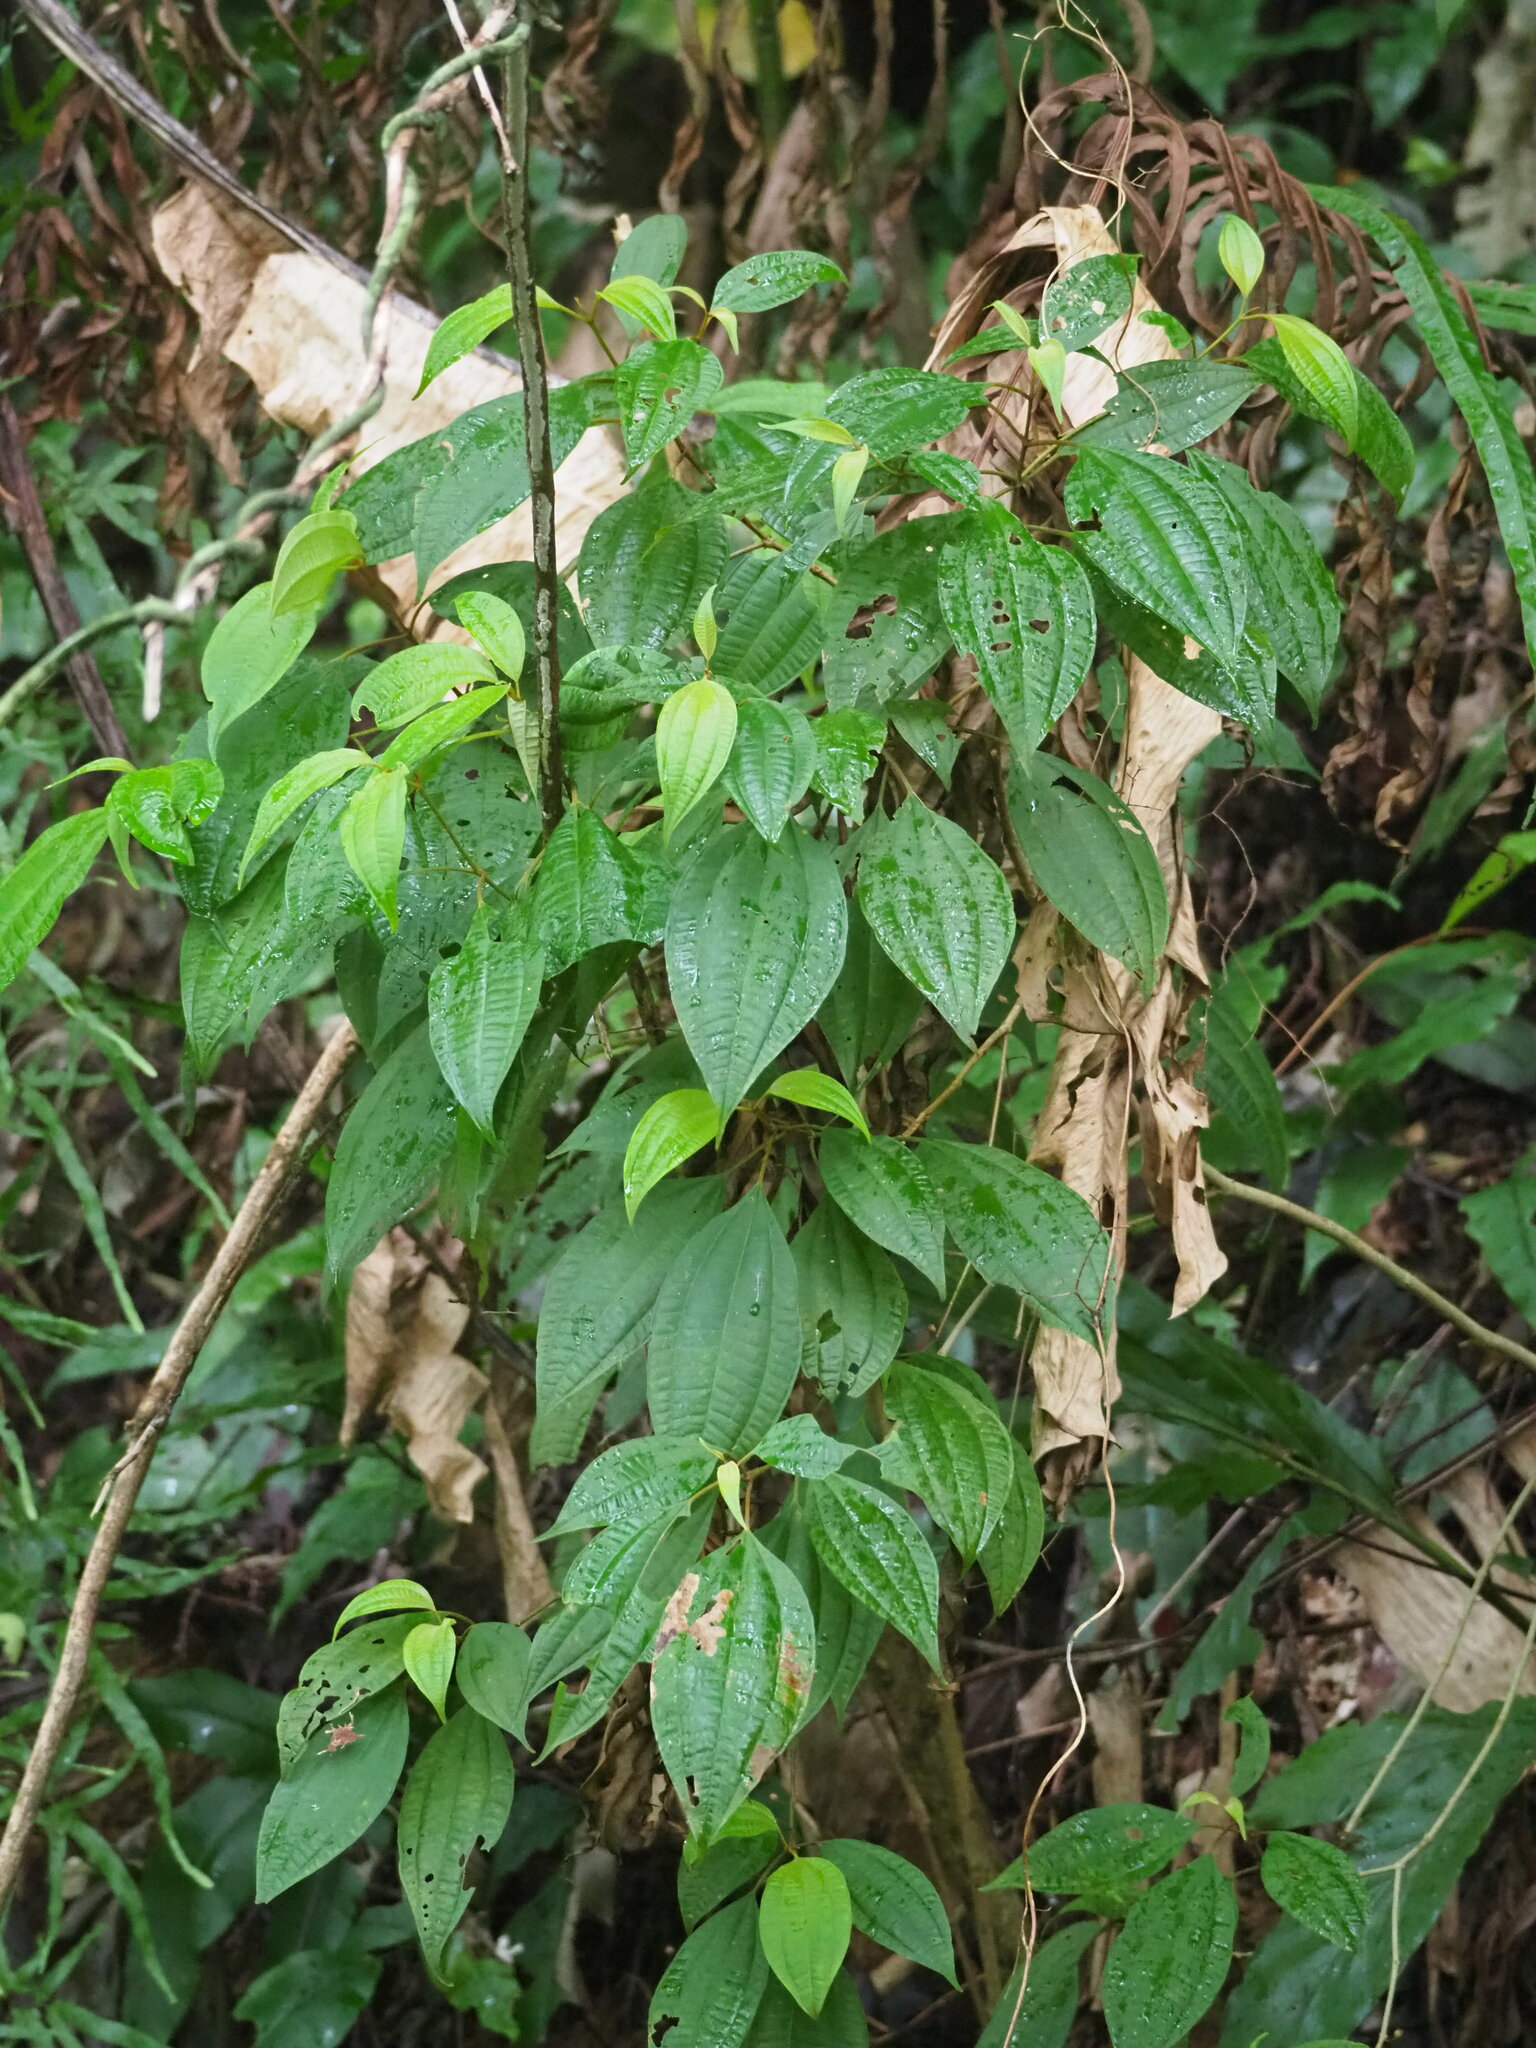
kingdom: Plantae
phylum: Tracheophyta
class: Magnoliopsida
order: Myrtales
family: Melastomataceae
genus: Blastus
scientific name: Blastus cochinchinensis
